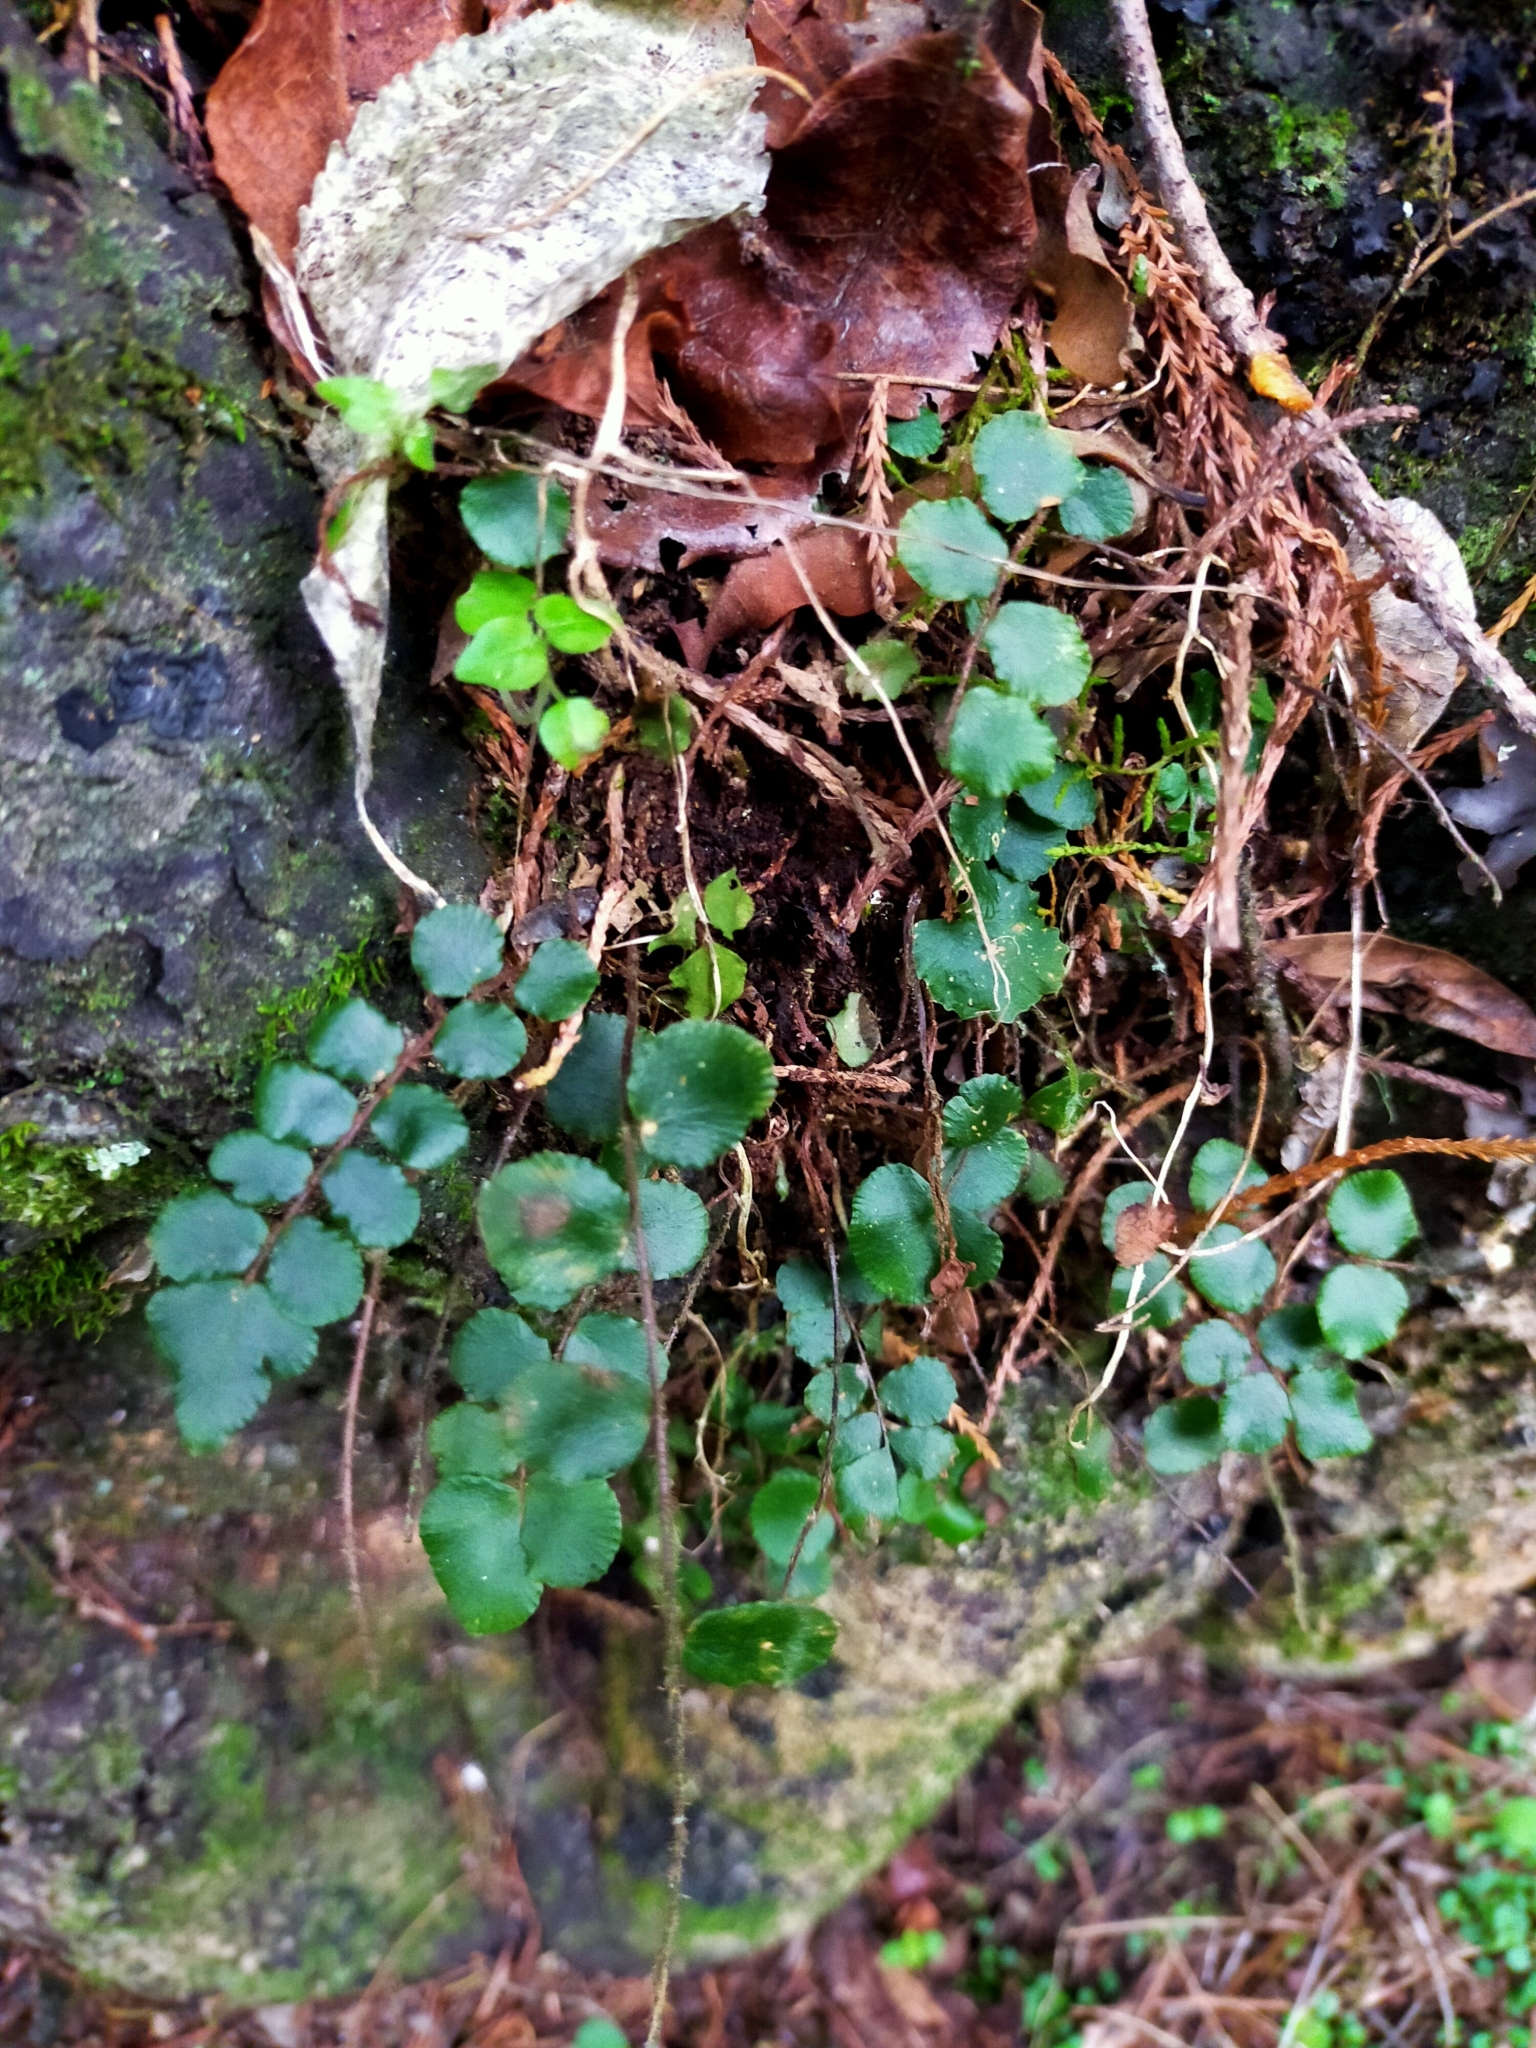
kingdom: Plantae
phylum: Tracheophyta
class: Polypodiopsida
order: Polypodiales
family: Pteridaceae
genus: Pellaea
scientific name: Pellaea rotundifolia
